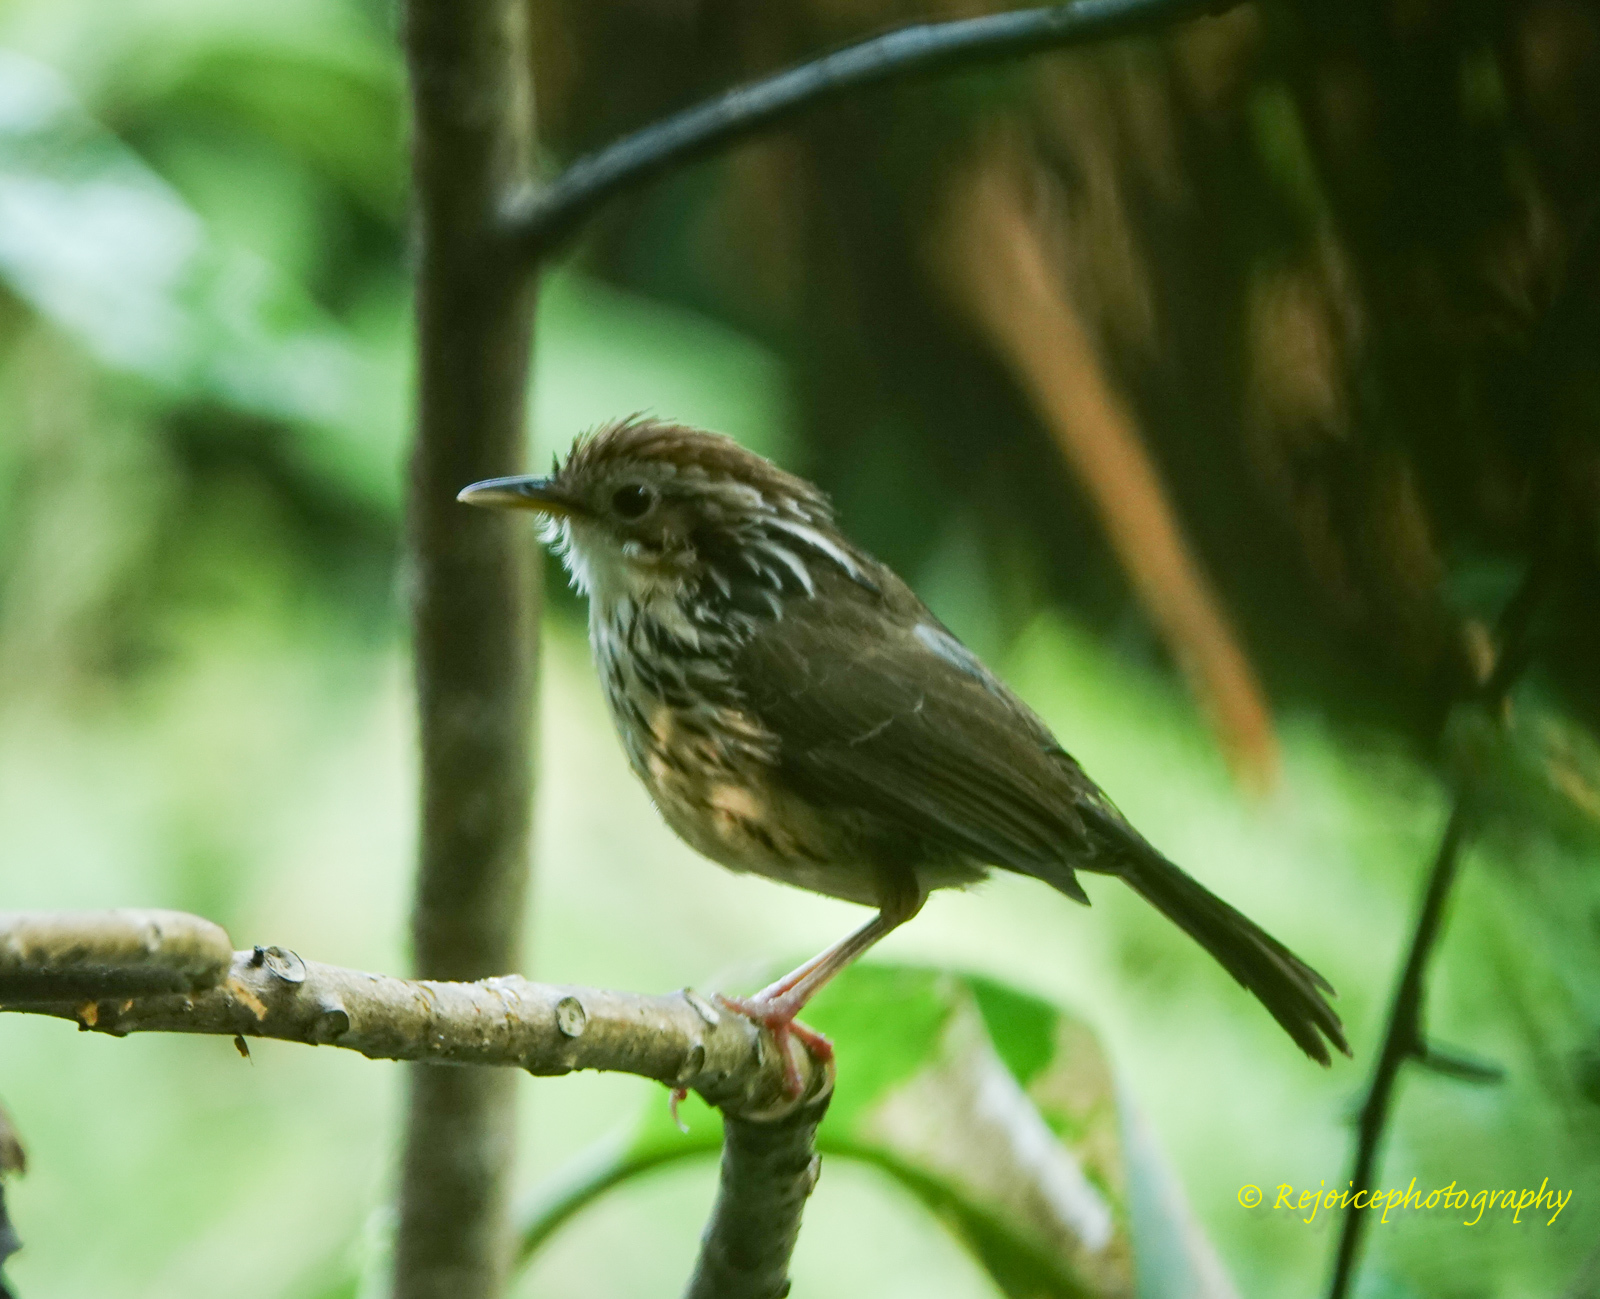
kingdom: Animalia
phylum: Chordata
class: Aves
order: Passeriformes
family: Pellorneidae
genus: Pellorneum
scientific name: Pellorneum ruficeps
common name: Puff-throated babbler
